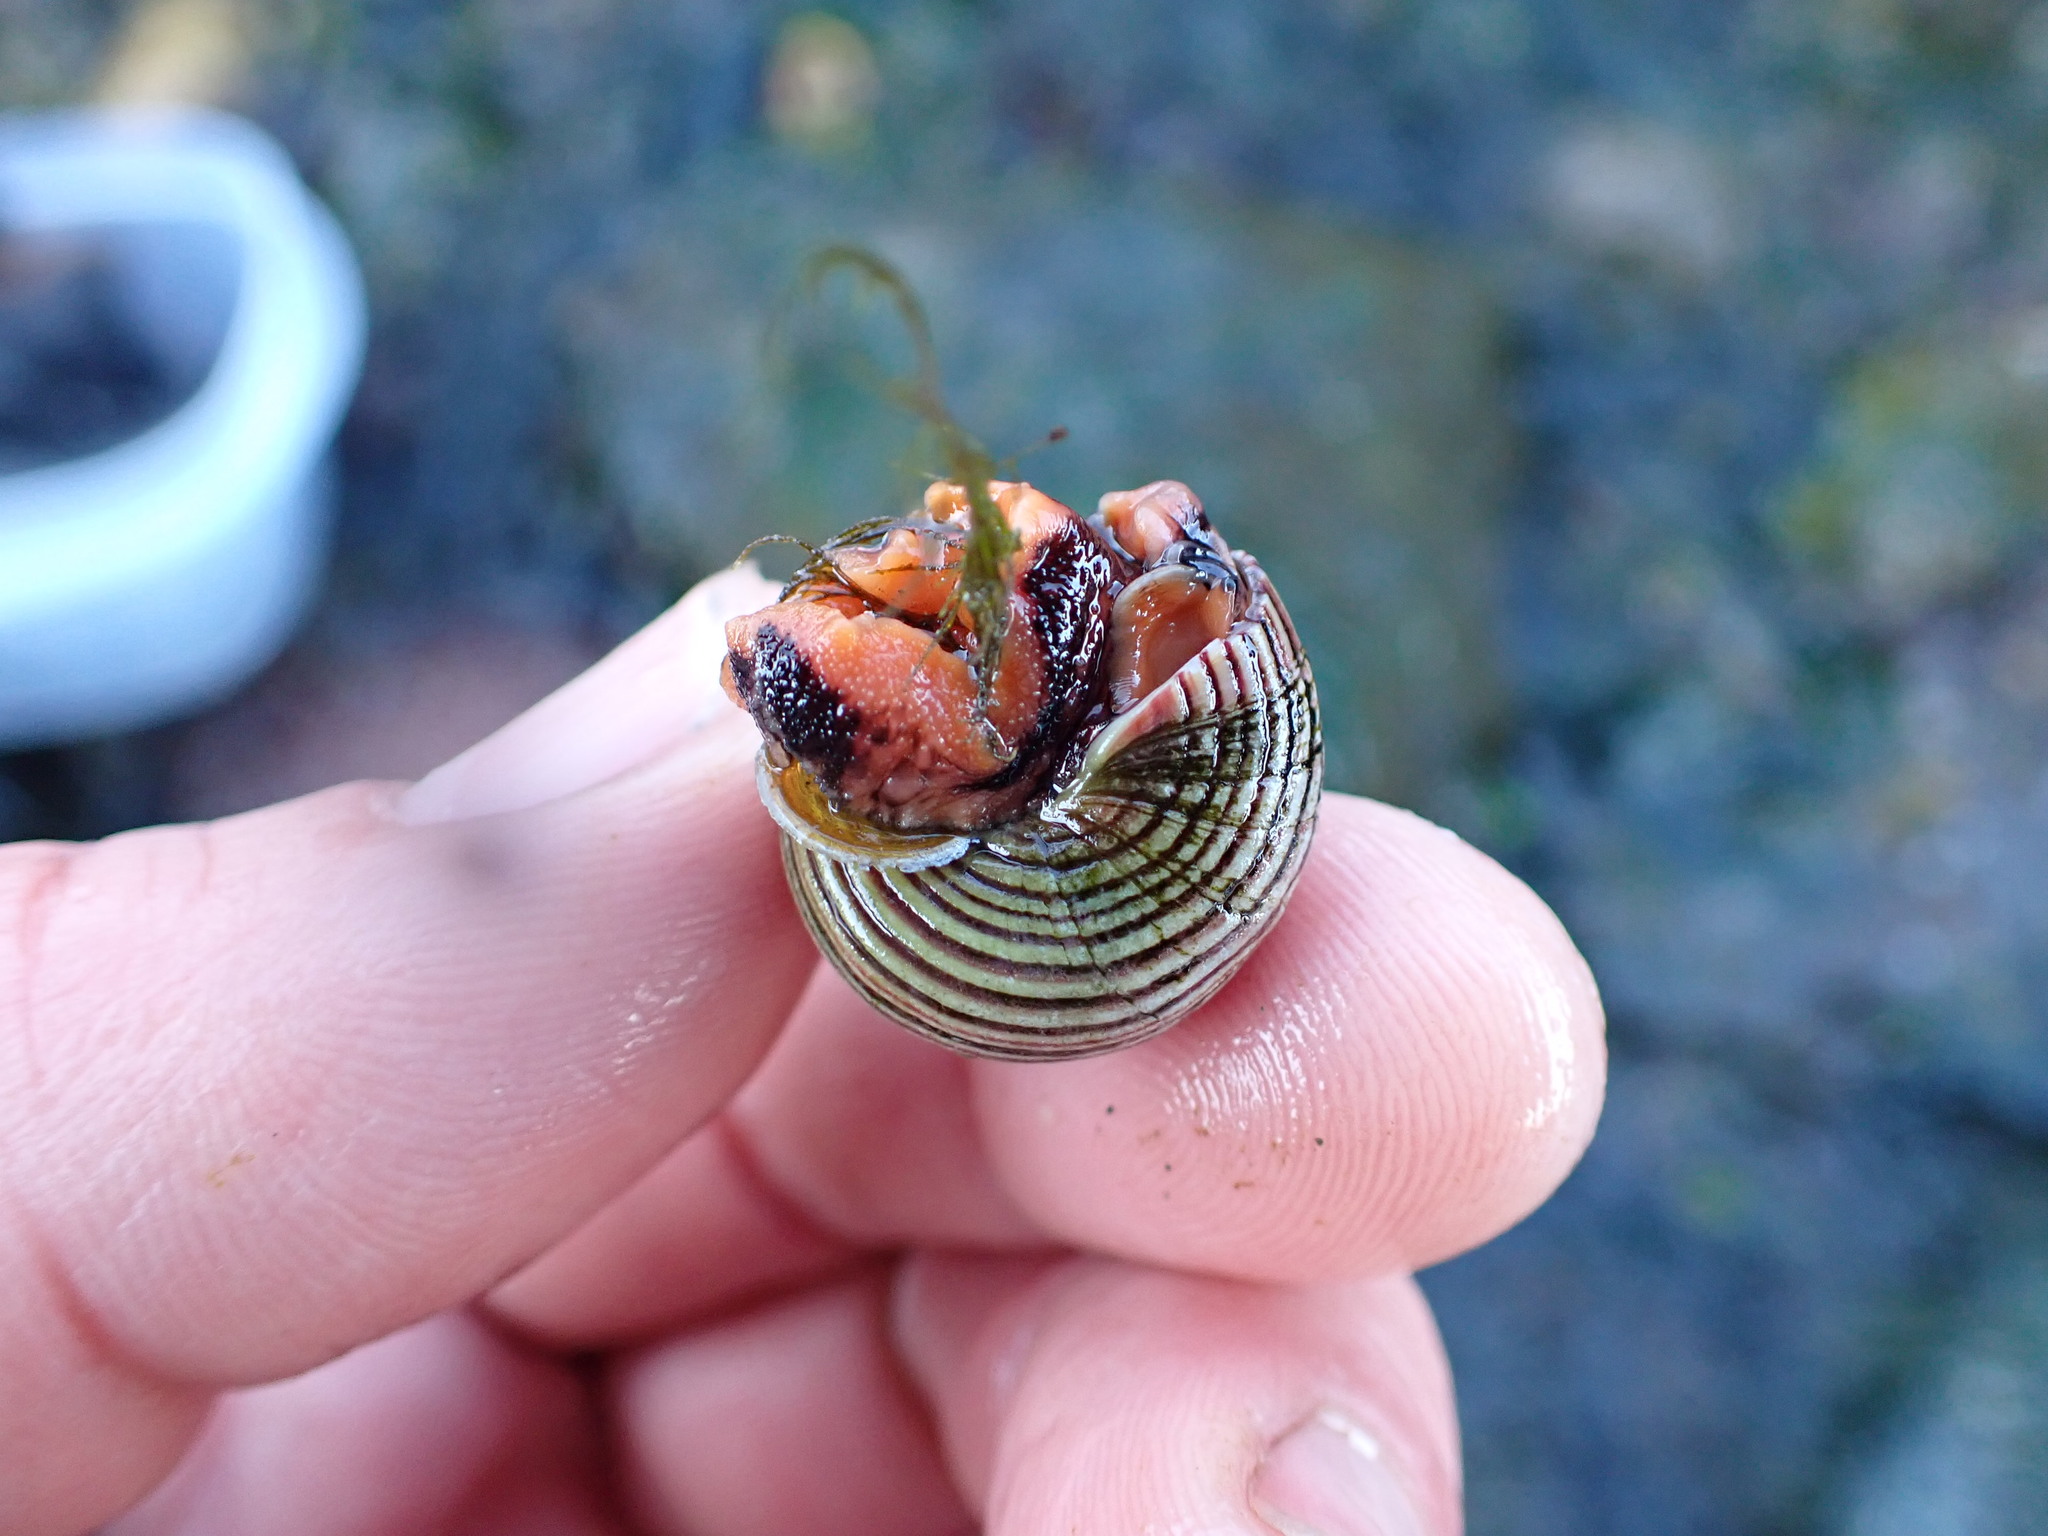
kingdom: Animalia
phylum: Mollusca
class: Gastropoda
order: Trochida
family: Calliostomatidae
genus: Calliostoma
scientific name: Calliostoma ligatum
